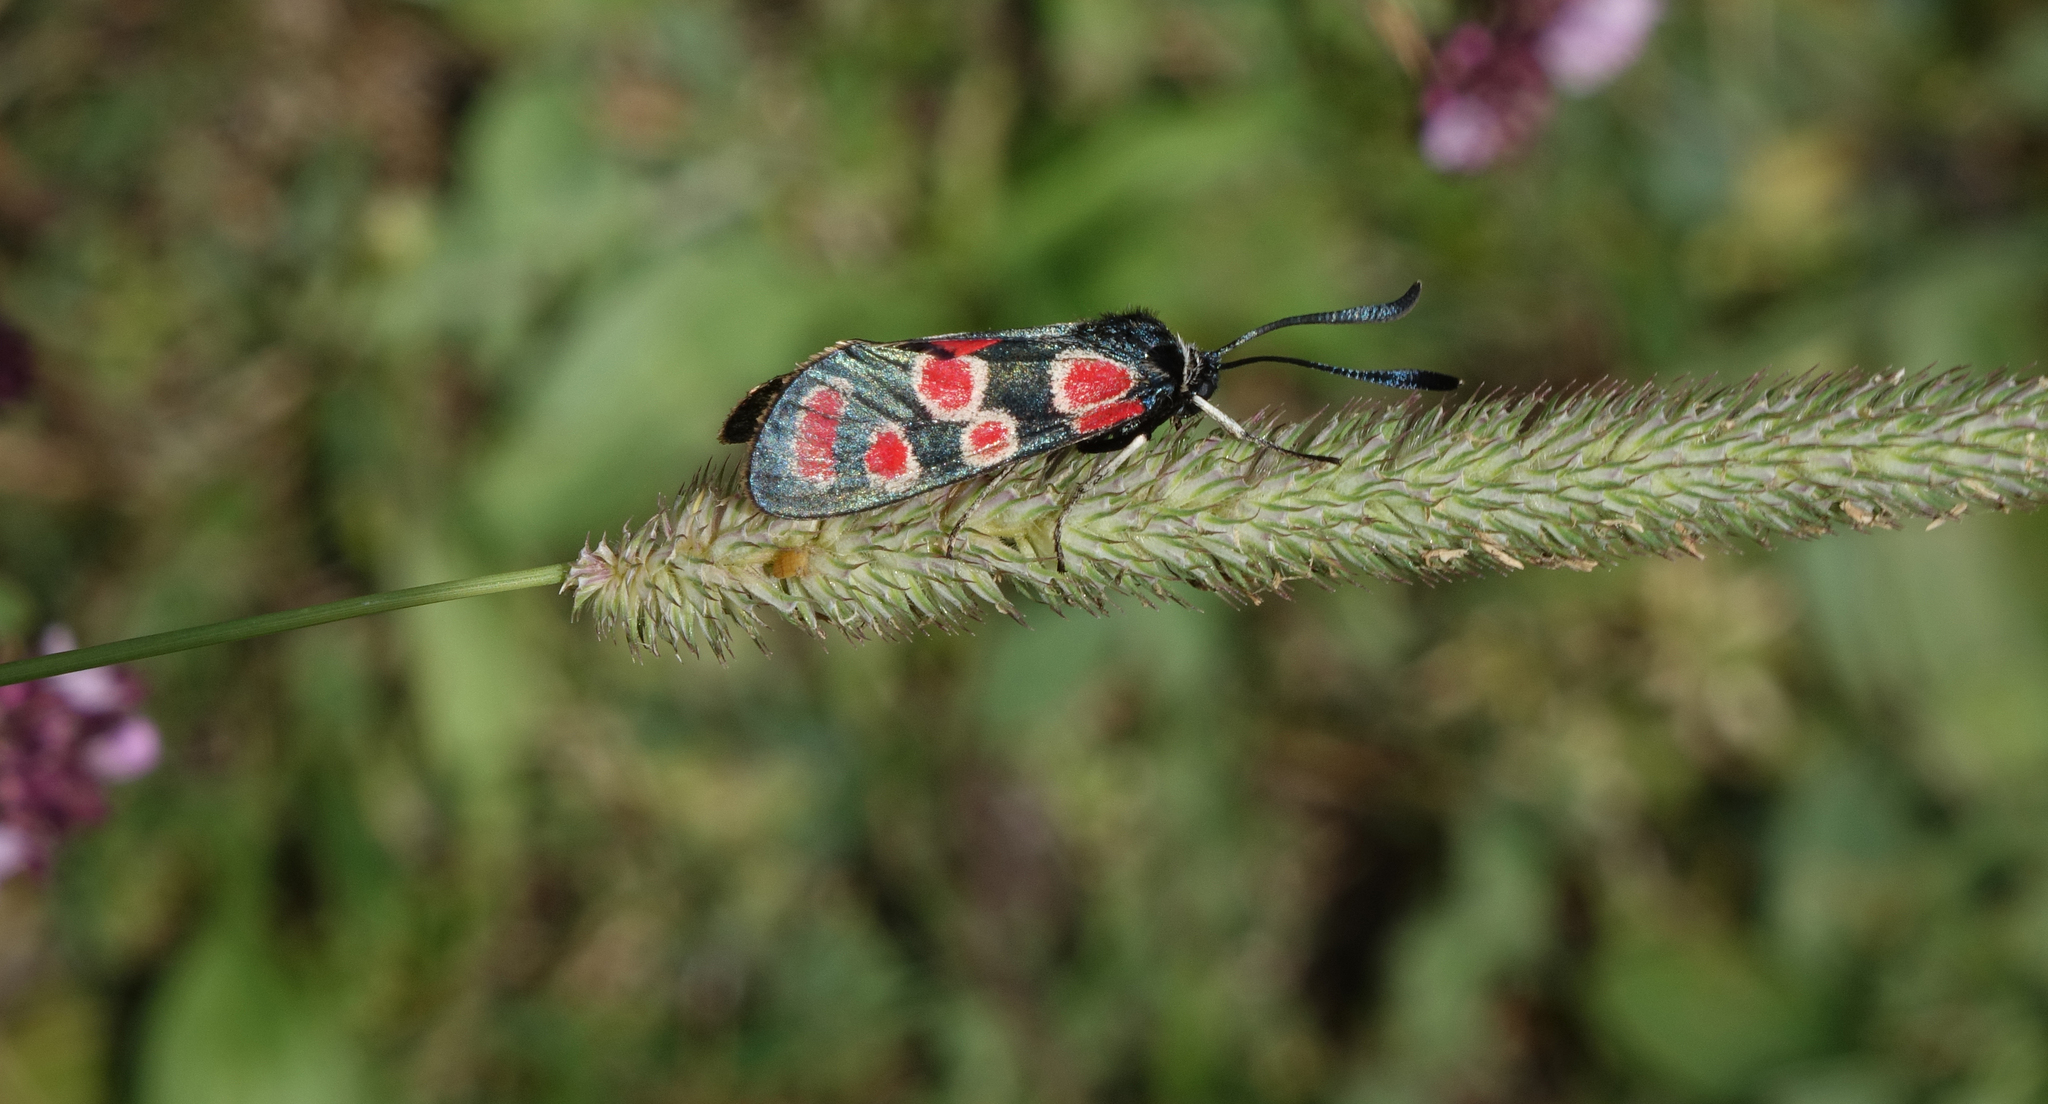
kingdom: Plantae
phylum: Tracheophyta
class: Liliopsida
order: Poales
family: Poaceae
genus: Phleum
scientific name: Phleum phleoides
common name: Purple-stem cat's-tail
